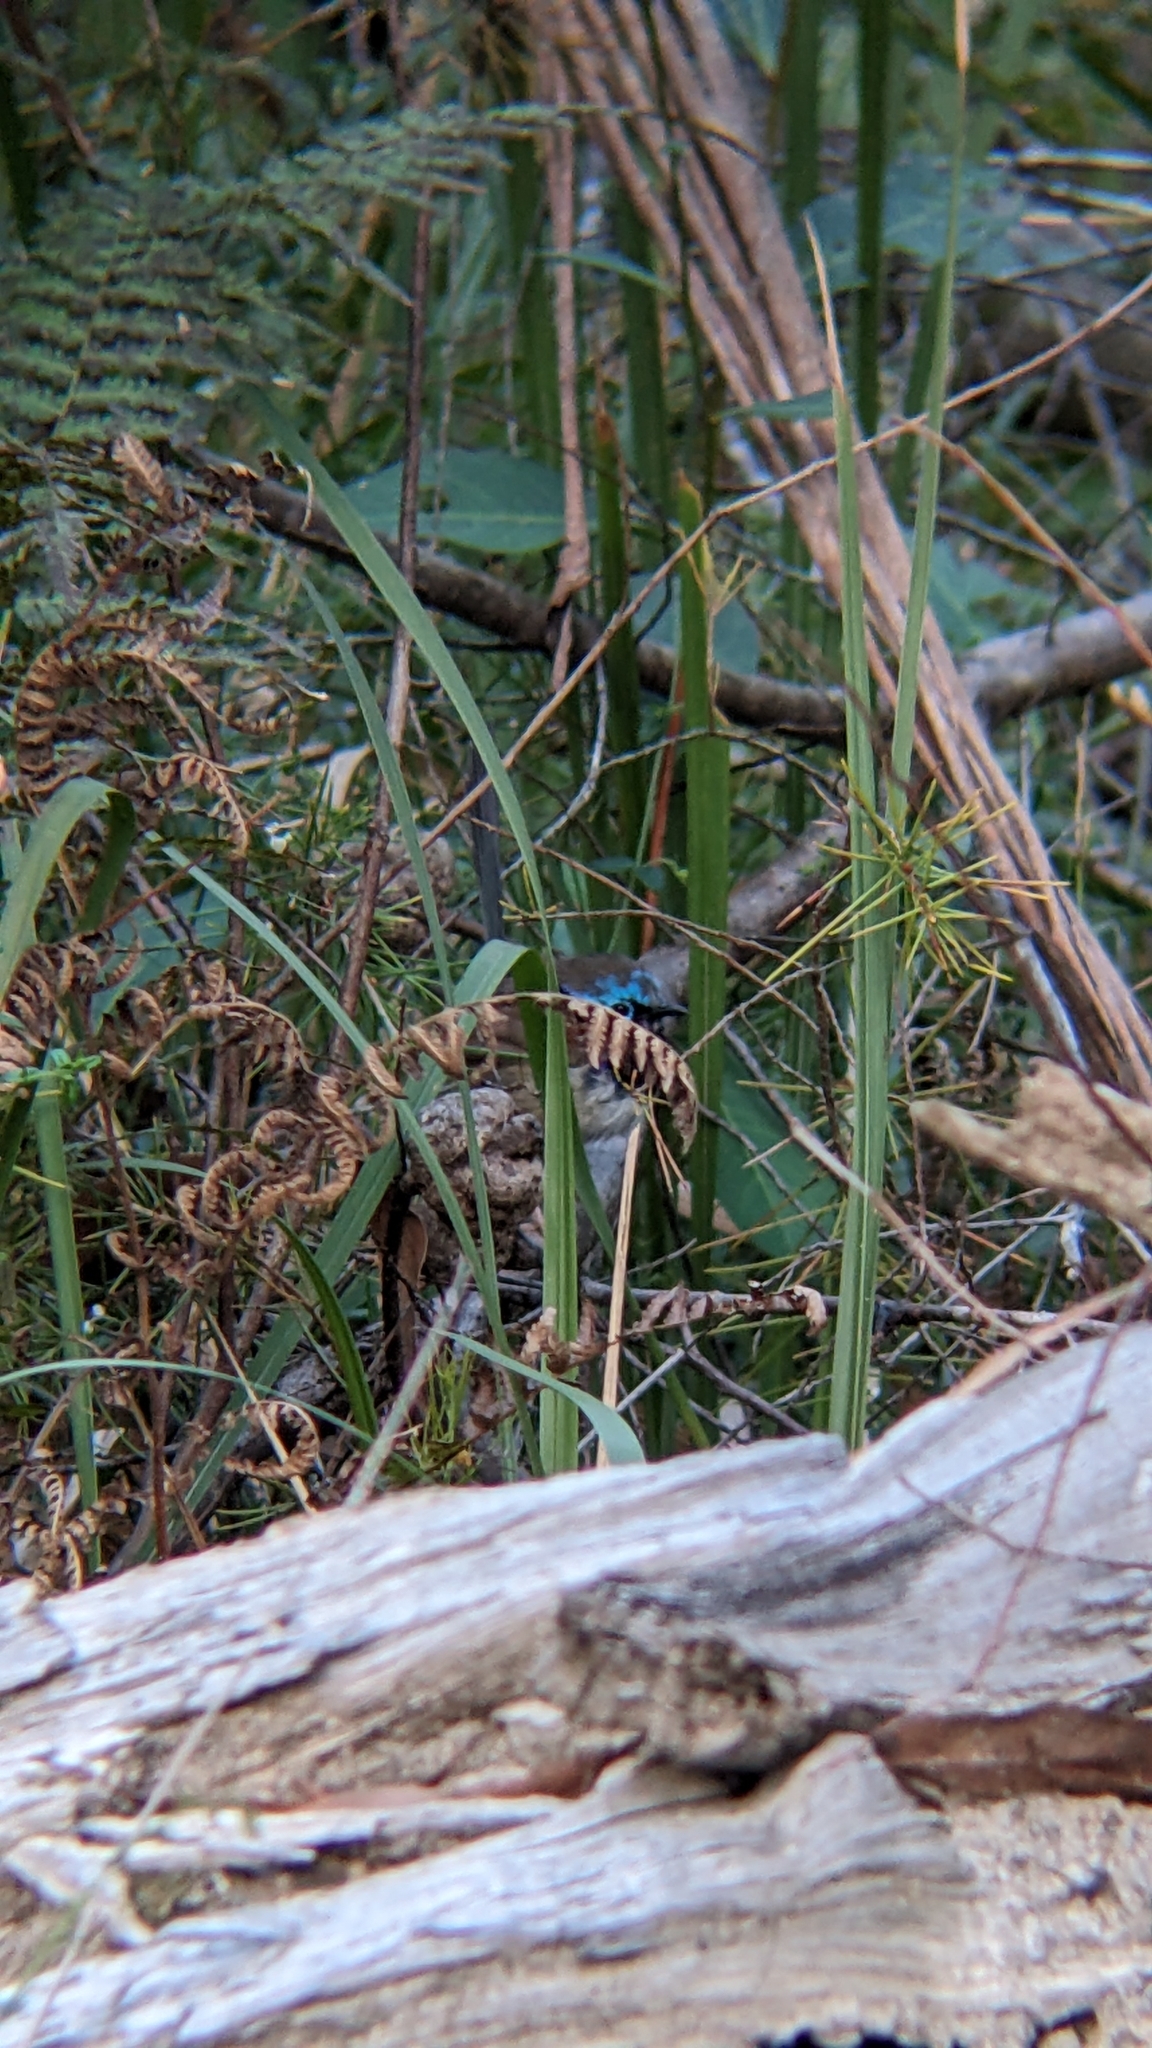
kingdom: Animalia
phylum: Chordata
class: Aves
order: Passeriformes
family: Maluridae
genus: Malurus
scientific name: Malurus lamberti
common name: Variegated fairywren
